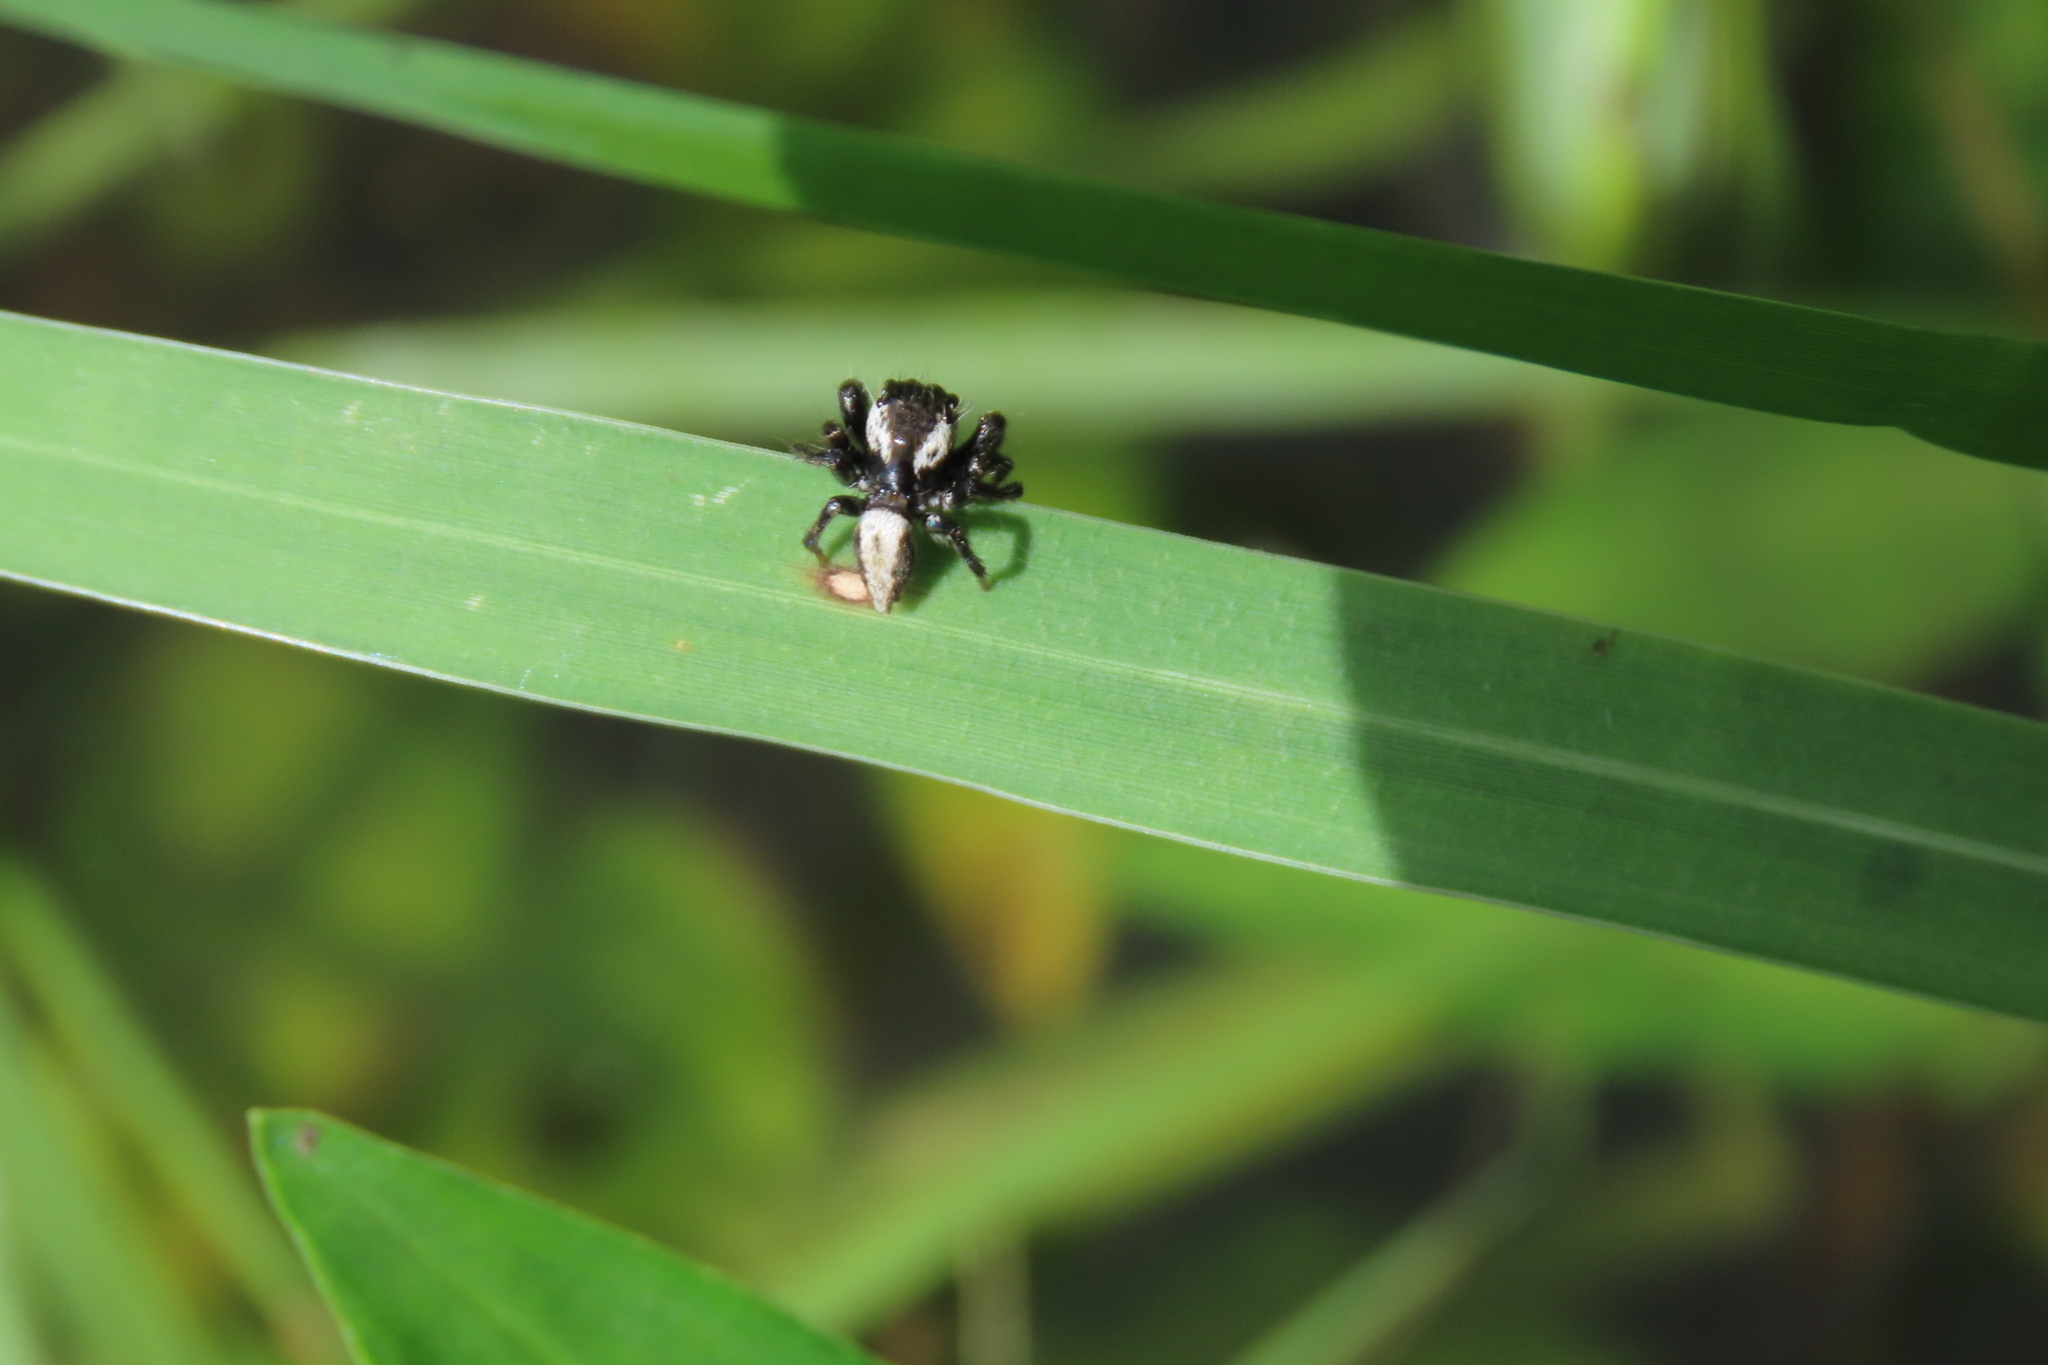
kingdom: Animalia
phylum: Arthropoda
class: Arachnida
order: Araneae
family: Salticidae
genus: Hyllus
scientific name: Hyllus manu
